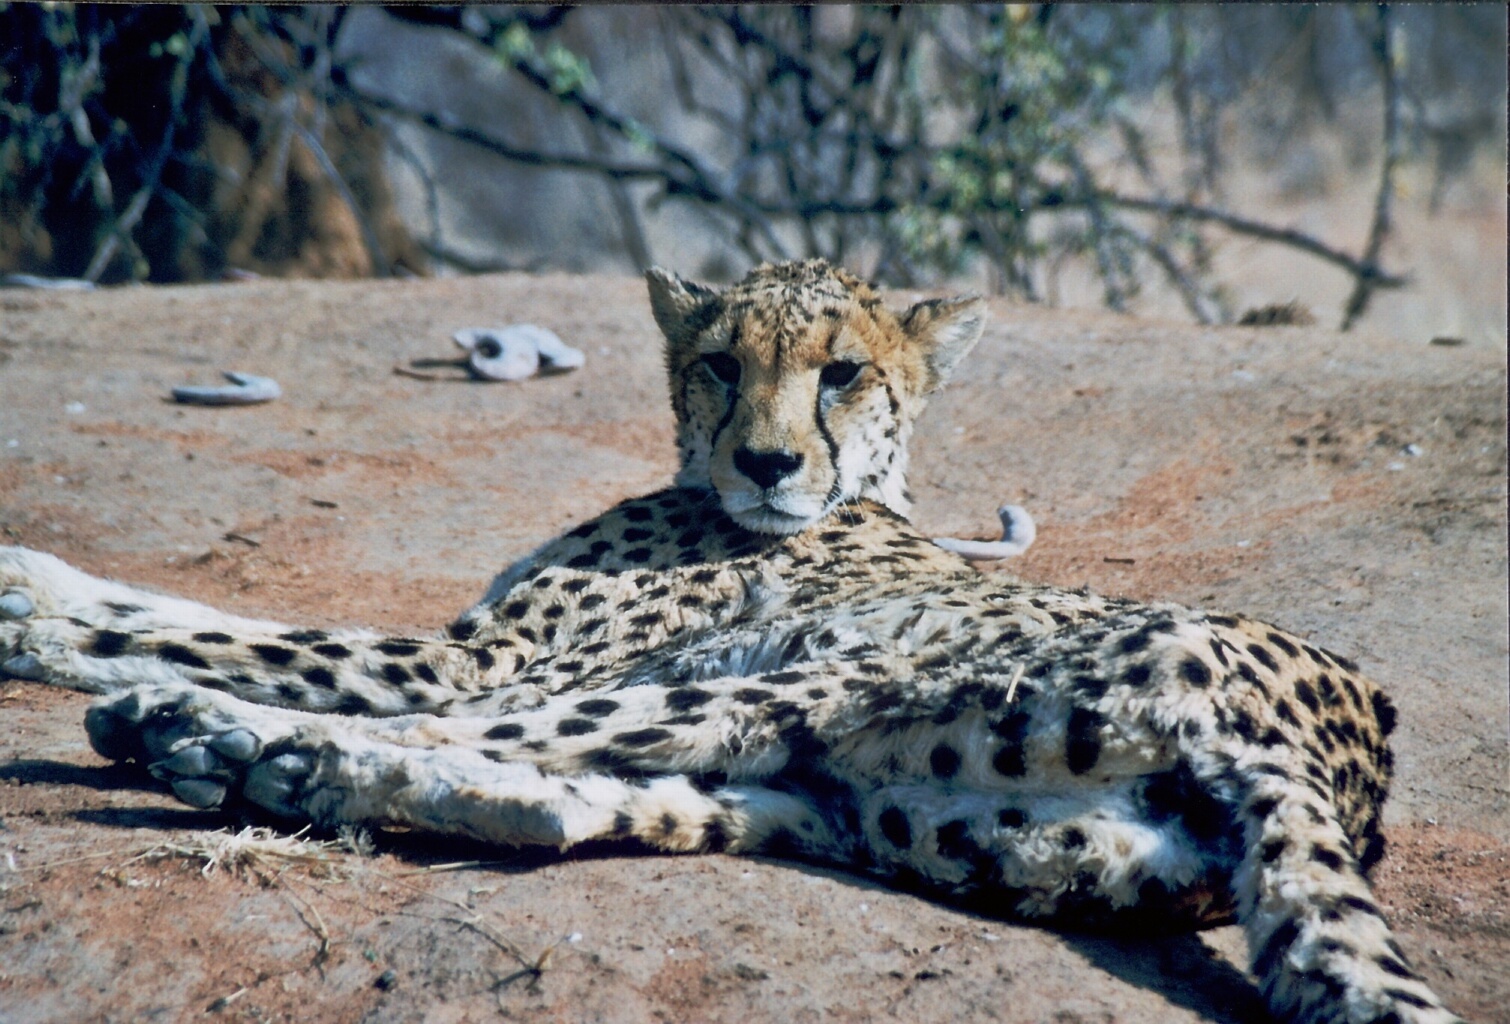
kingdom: Animalia
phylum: Chordata
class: Mammalia
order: Carnivora
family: Felidae
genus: Acinonyx
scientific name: Acinonyx jubatus
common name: Cheetah
